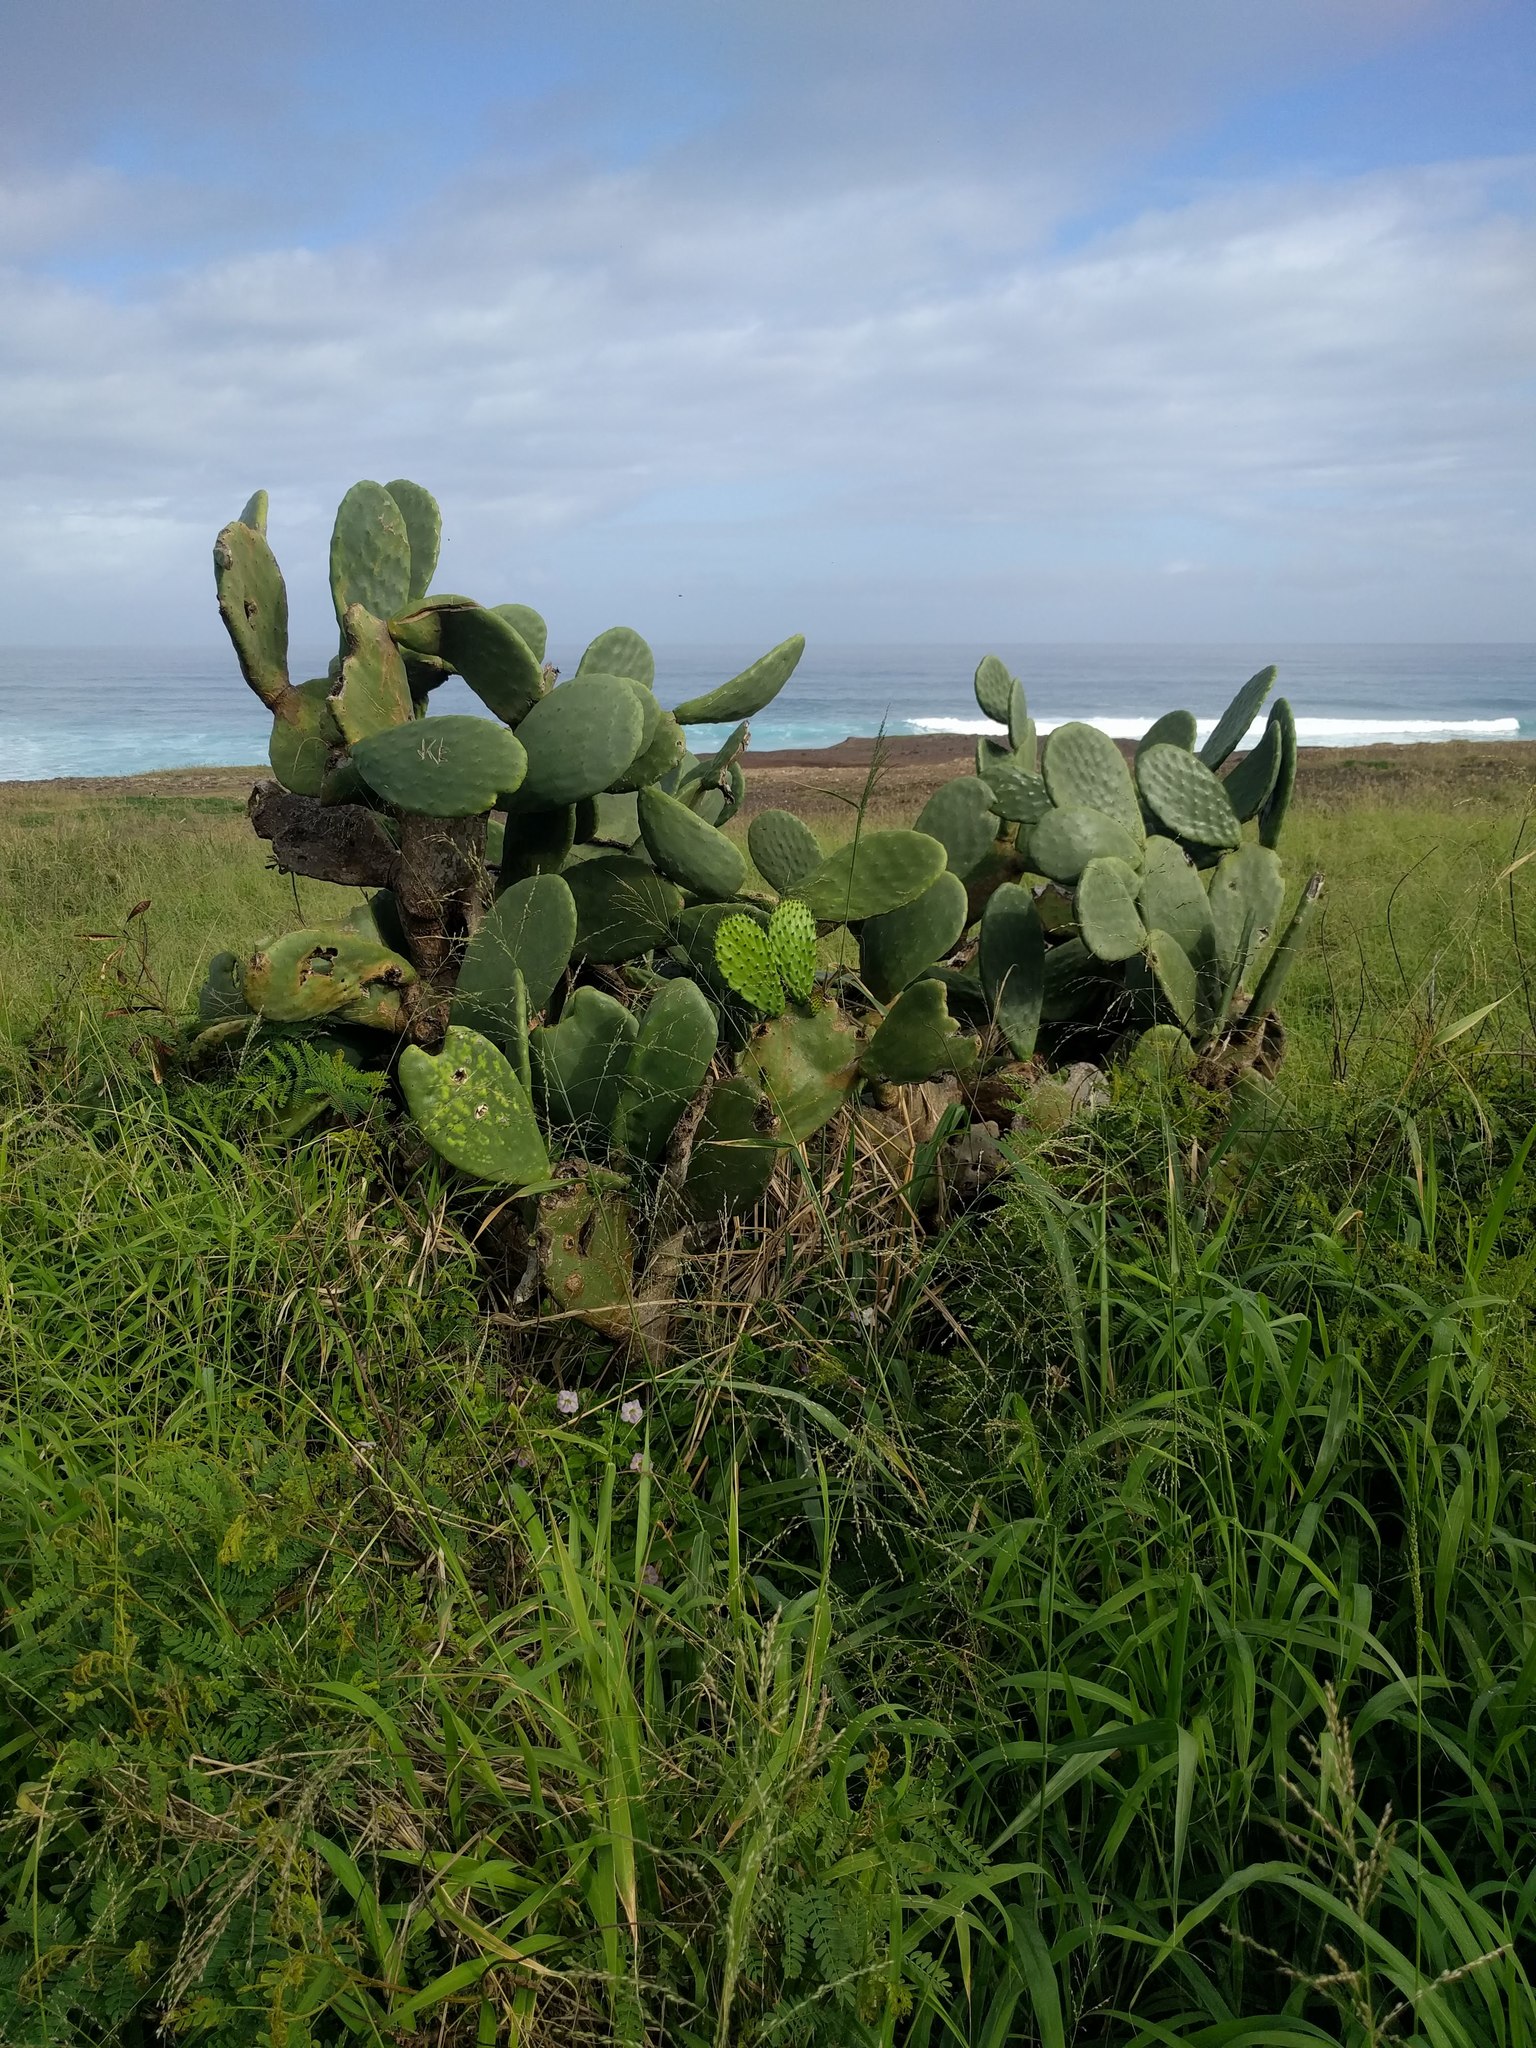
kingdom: Plantae
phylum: Tracheophyta
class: Magnoliopsida
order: Caryophyllales
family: Cactaceae
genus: Opuntia
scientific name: Opuntia ficus-indica
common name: Barbary fig
